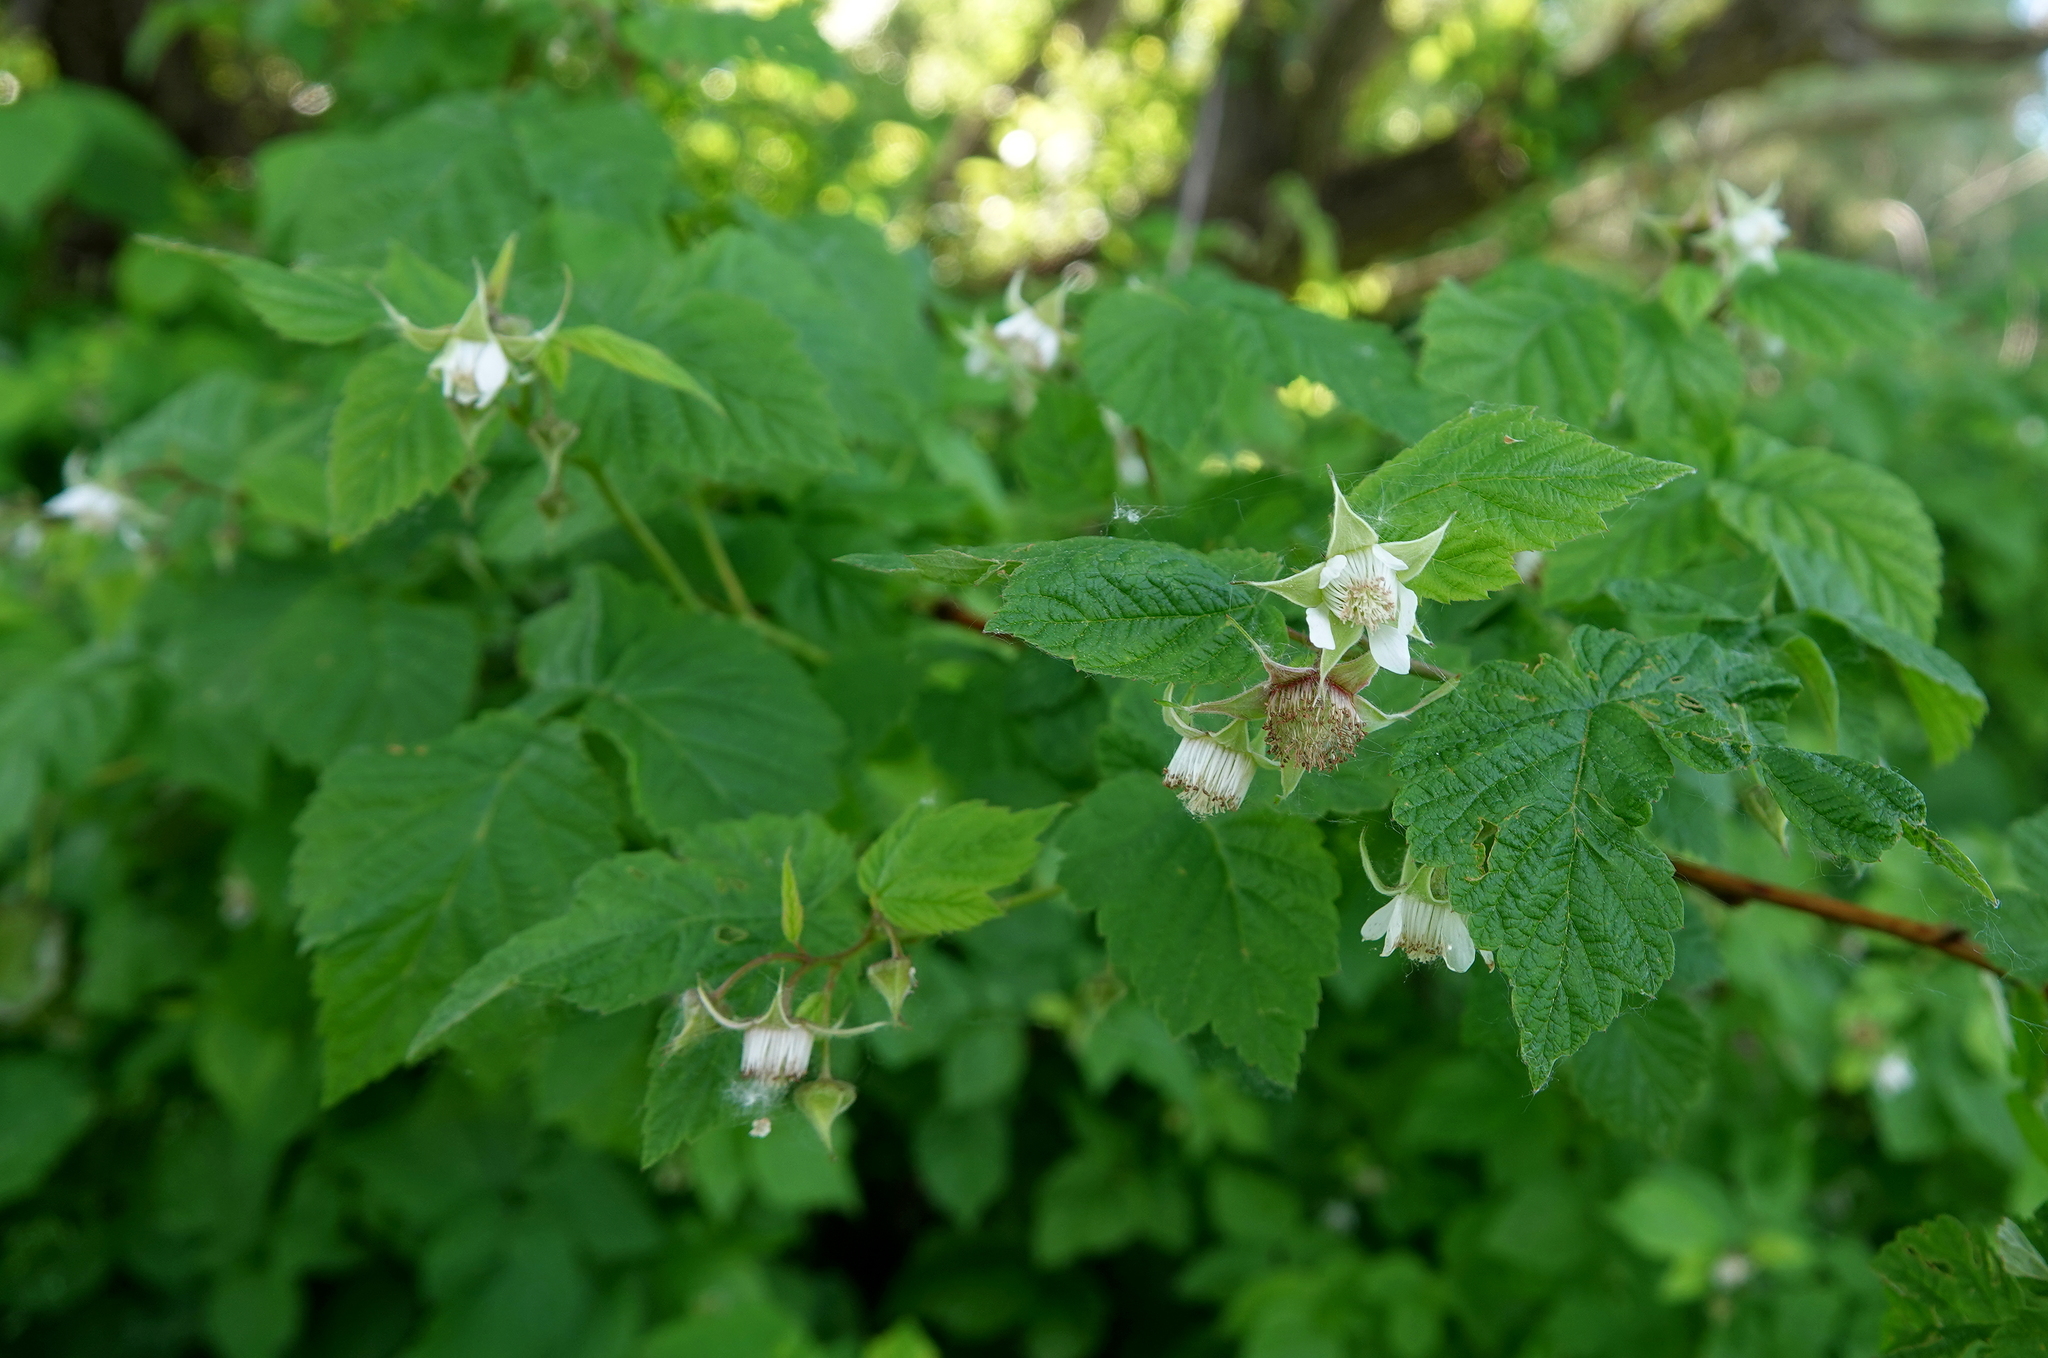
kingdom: Plantae
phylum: Tracheophyta
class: Magnoliopsida
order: Rosales
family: Rosaceae
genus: Rubus
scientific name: Rubus idaeus
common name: Raspberry
